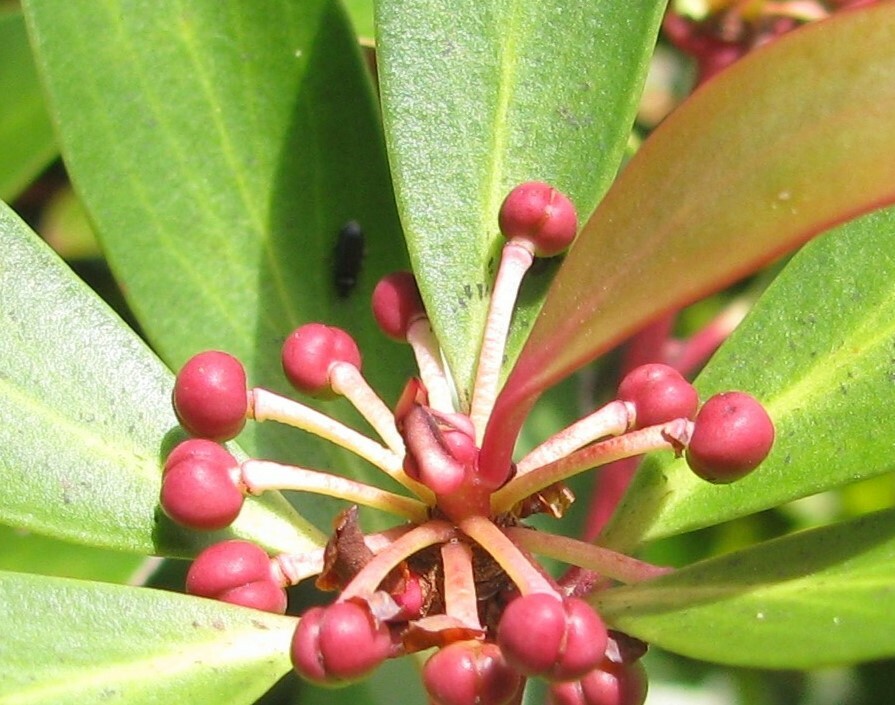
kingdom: Plantae
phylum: Tracheophyta
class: Magnoliopsida
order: Canellales
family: Winteraceae
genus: Drimys
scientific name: Drimys aromatica
